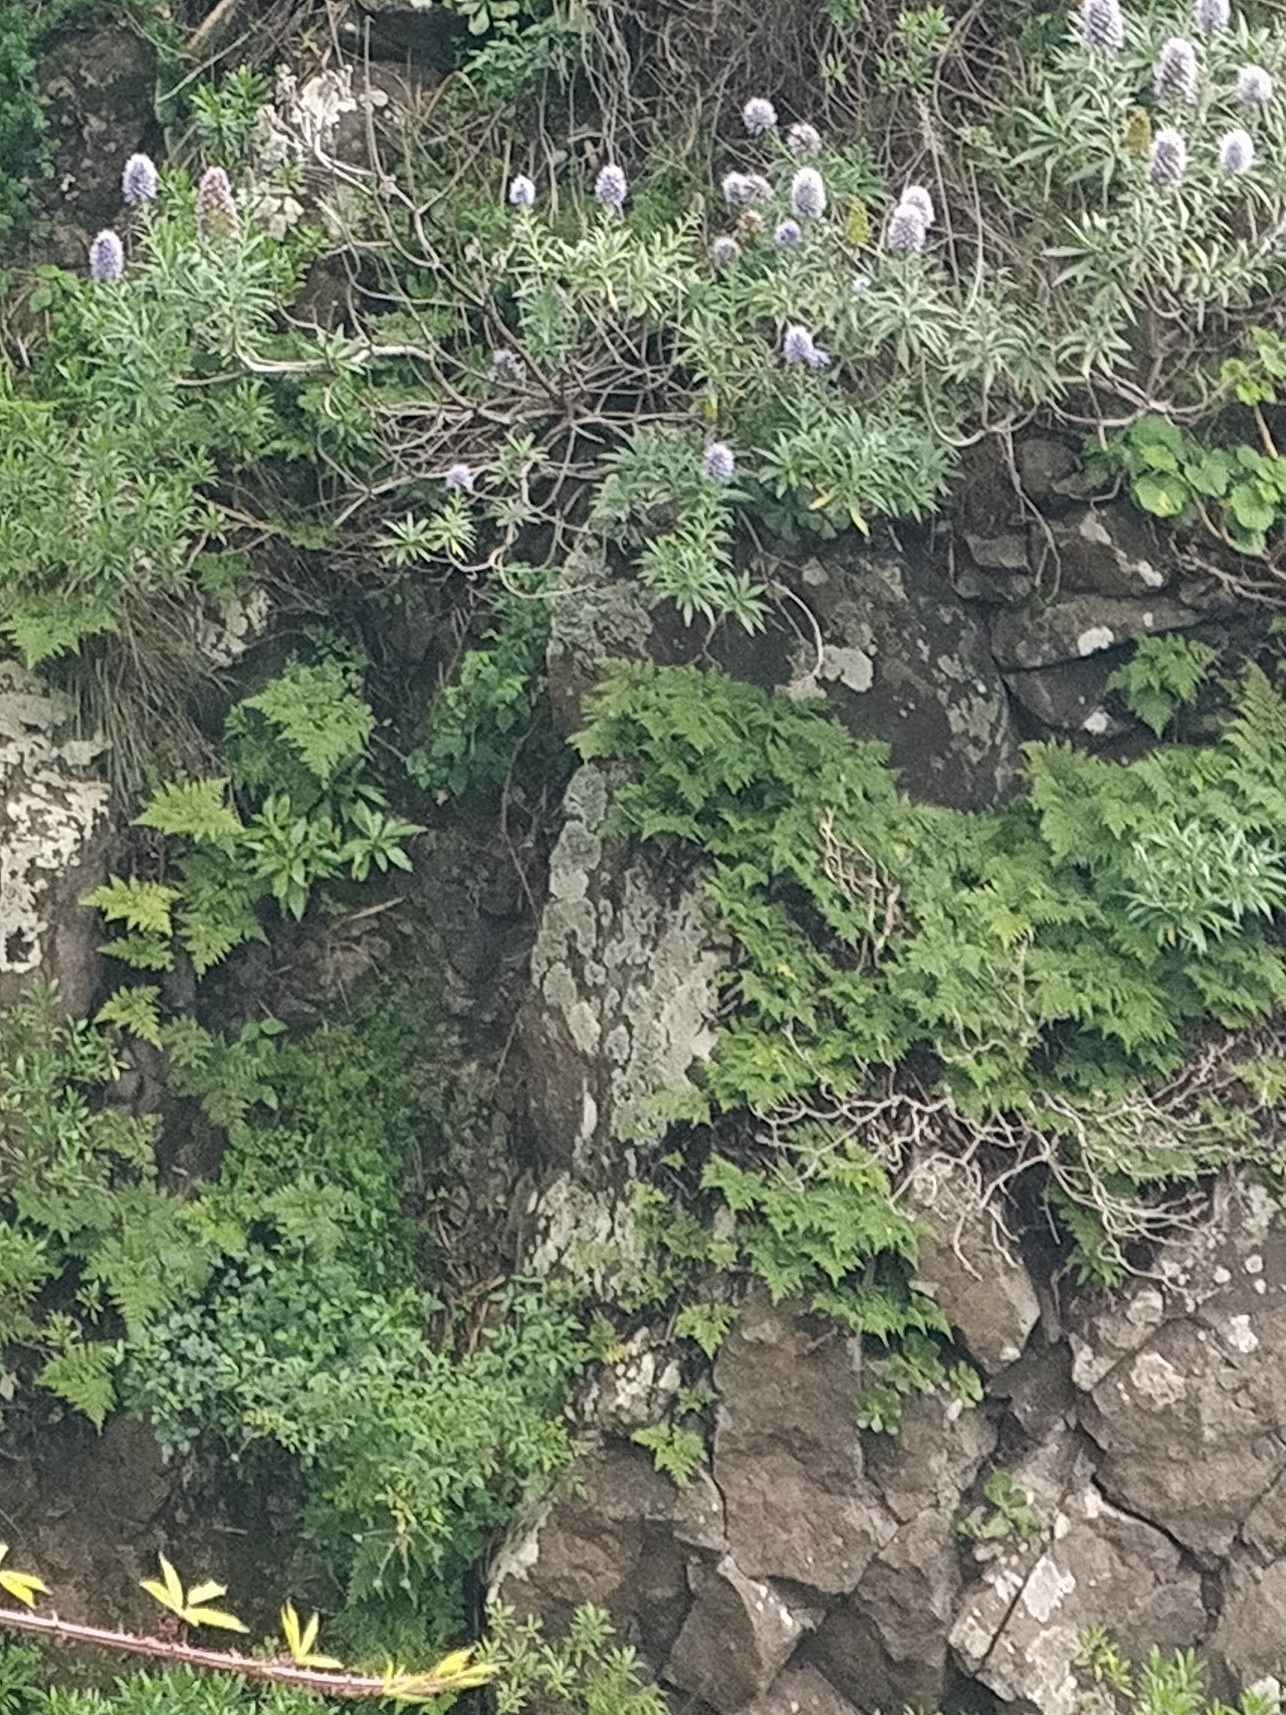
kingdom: Plantae
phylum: Tracheophyta
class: Polypodiopsida
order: Polypodiales
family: Davalliaceae
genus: Davallia
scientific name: Davallia canariensis
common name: Hare's-foot fern
